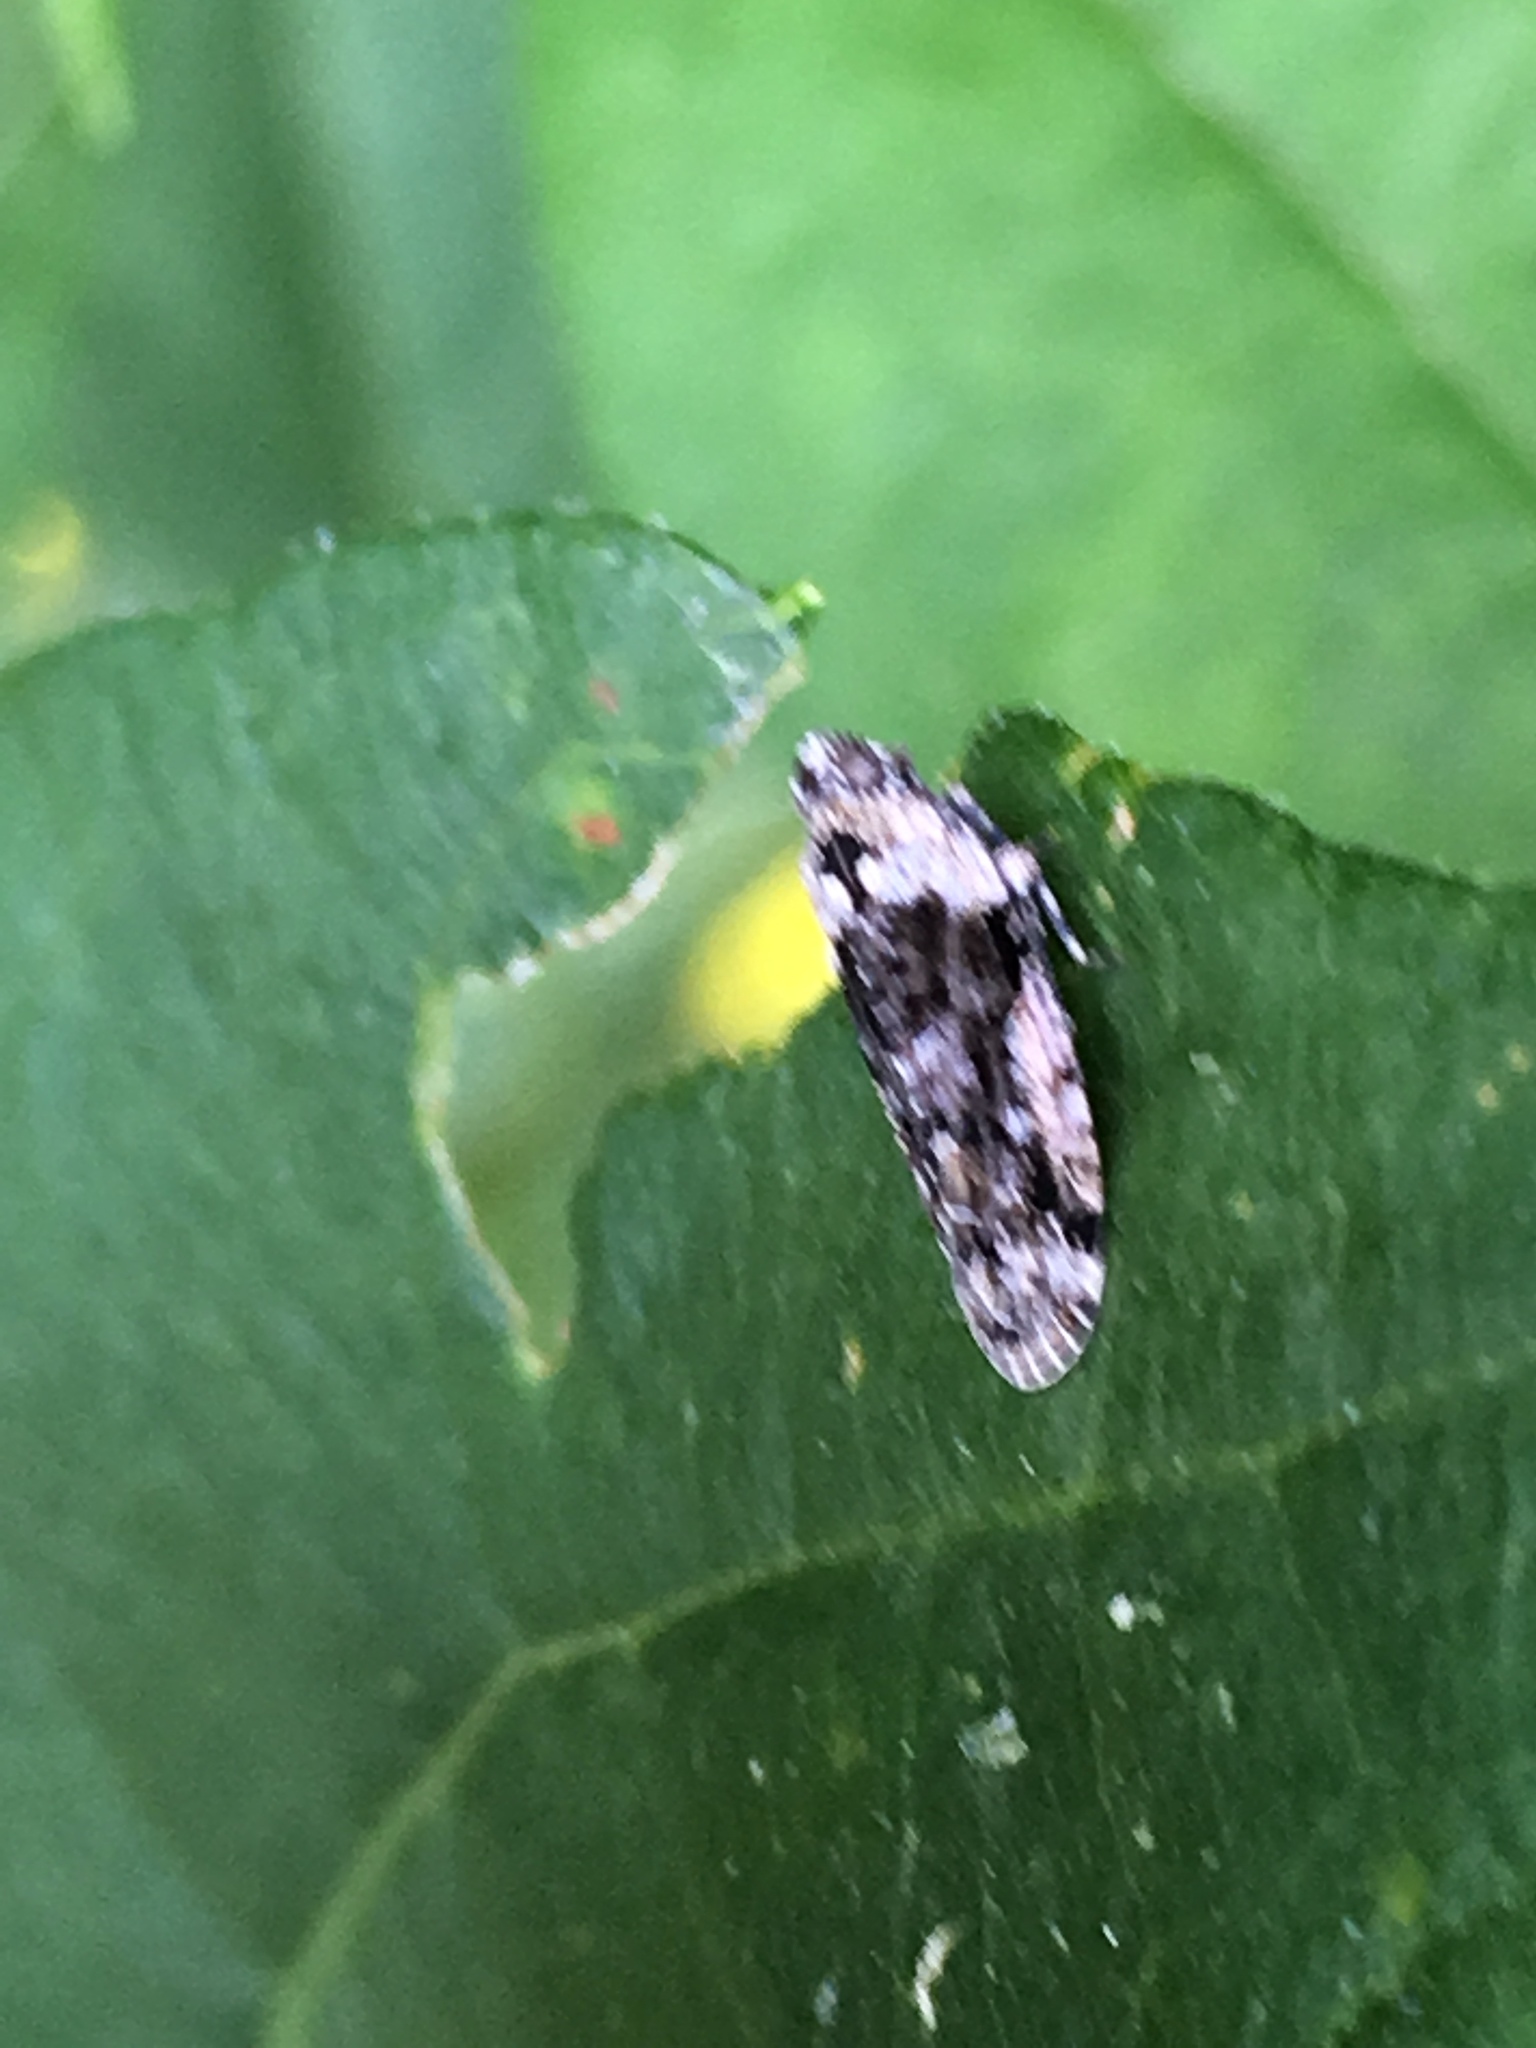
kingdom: Animalia
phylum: Arthropoda
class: Insecta
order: Hemiptera
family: Achilidae
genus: Catonia
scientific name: Catonia nava
